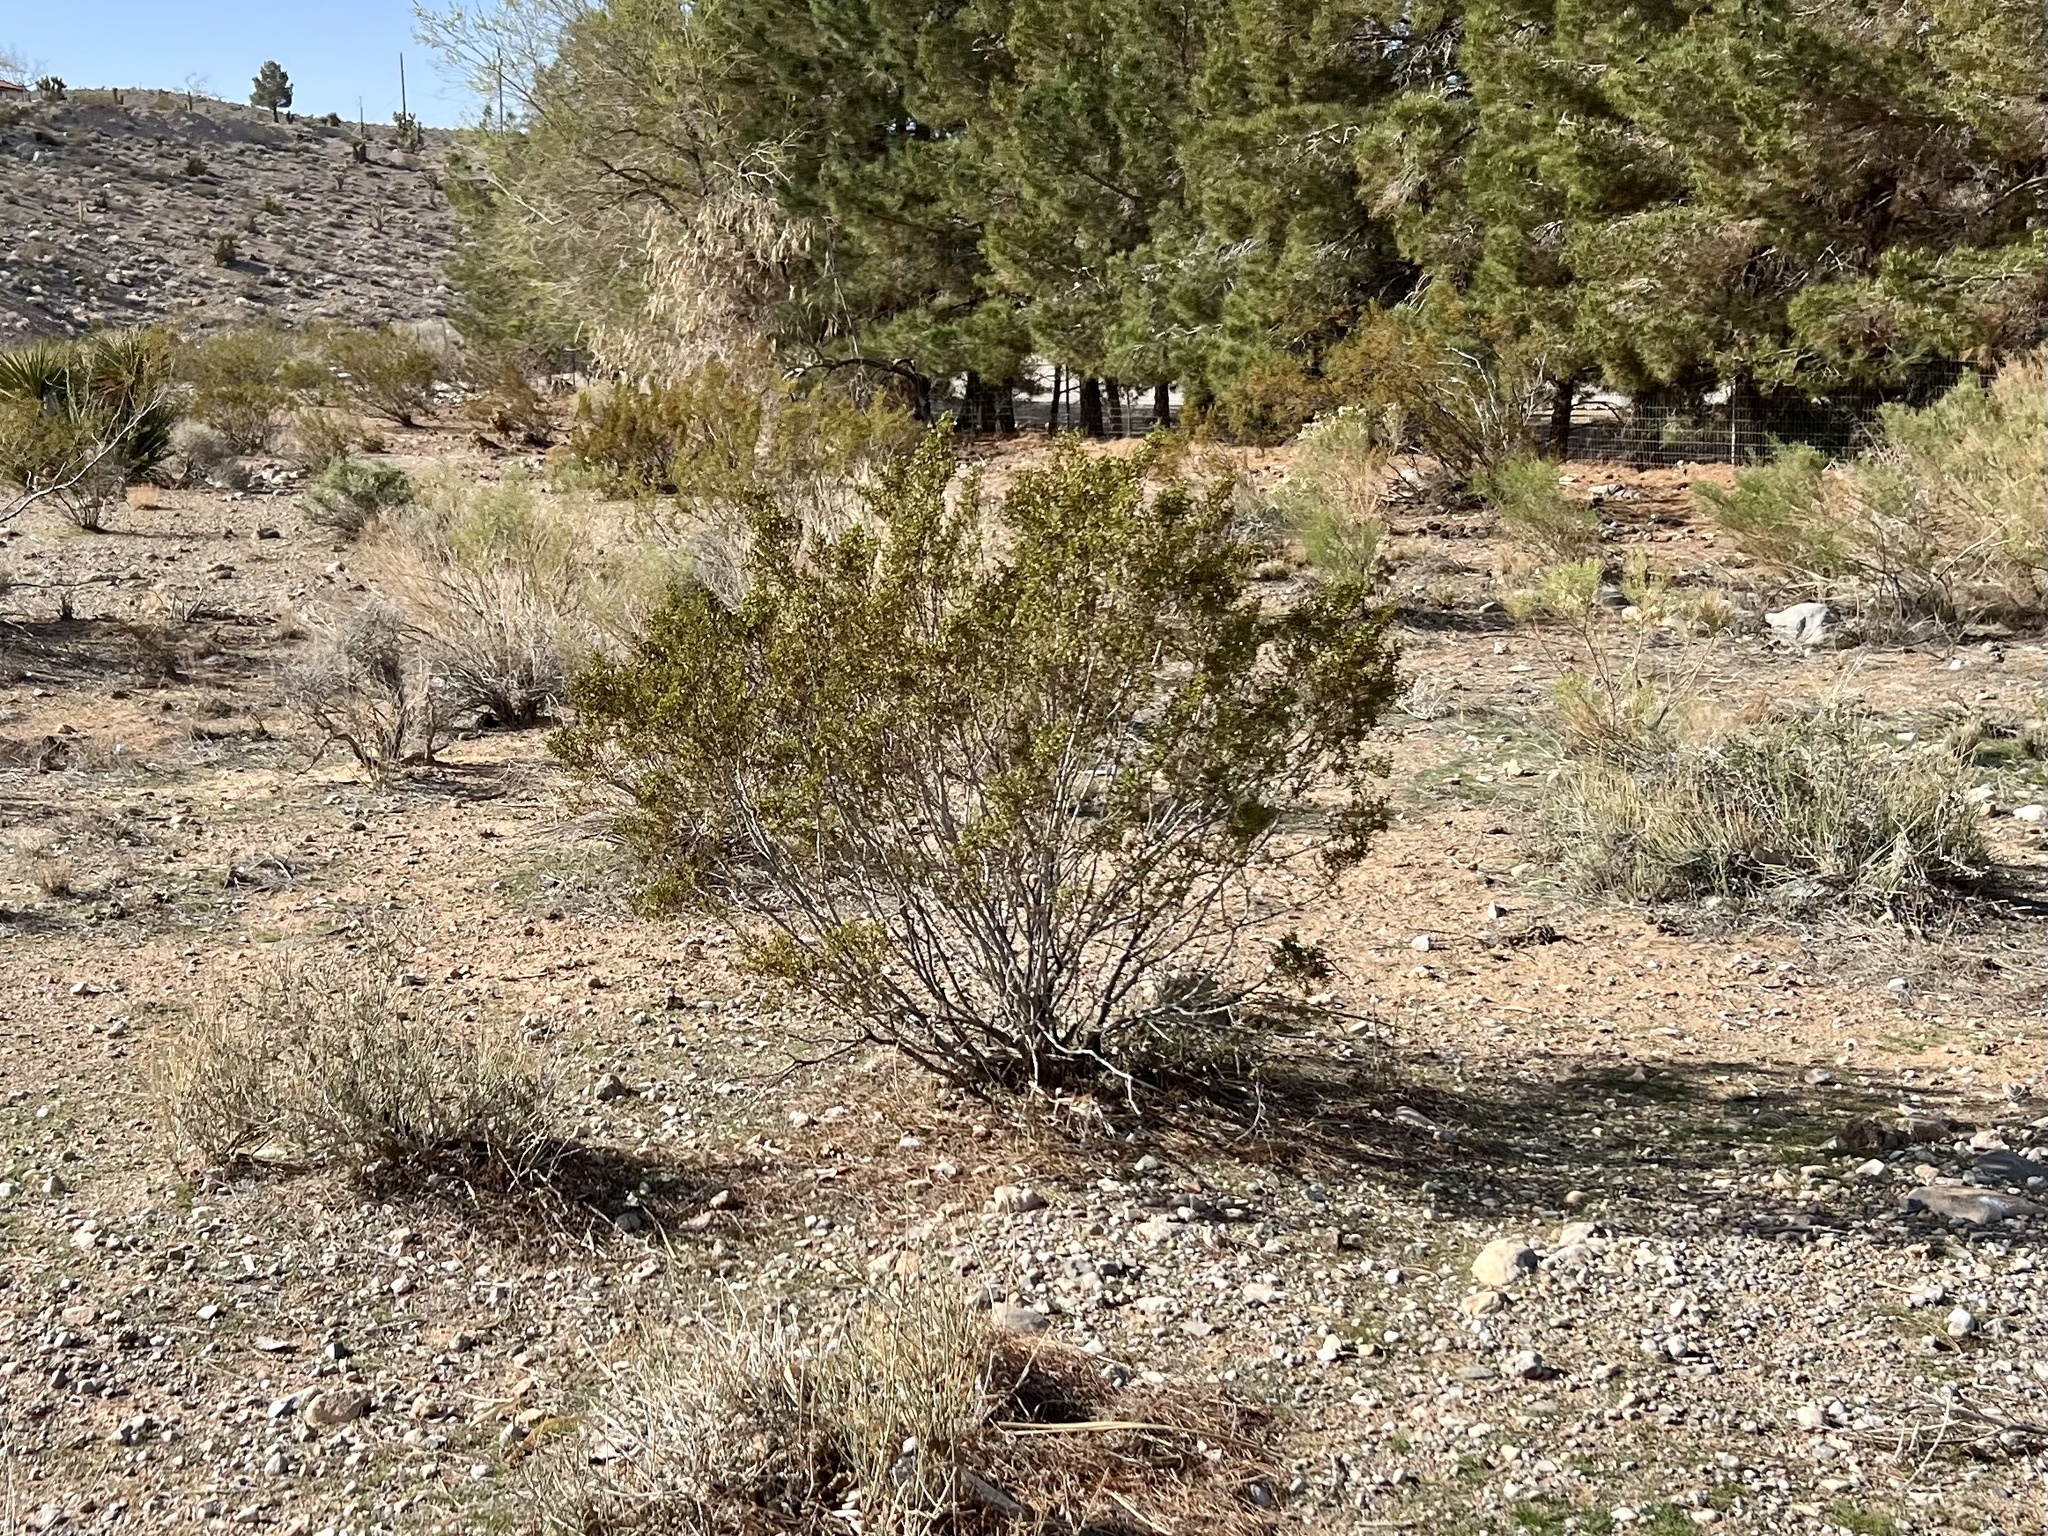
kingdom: Plantae
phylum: Tracheophyta
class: Magnoliopsida
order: Zygophyllales
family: Zygophyllaceae
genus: Larrea
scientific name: Larrea tridentata
